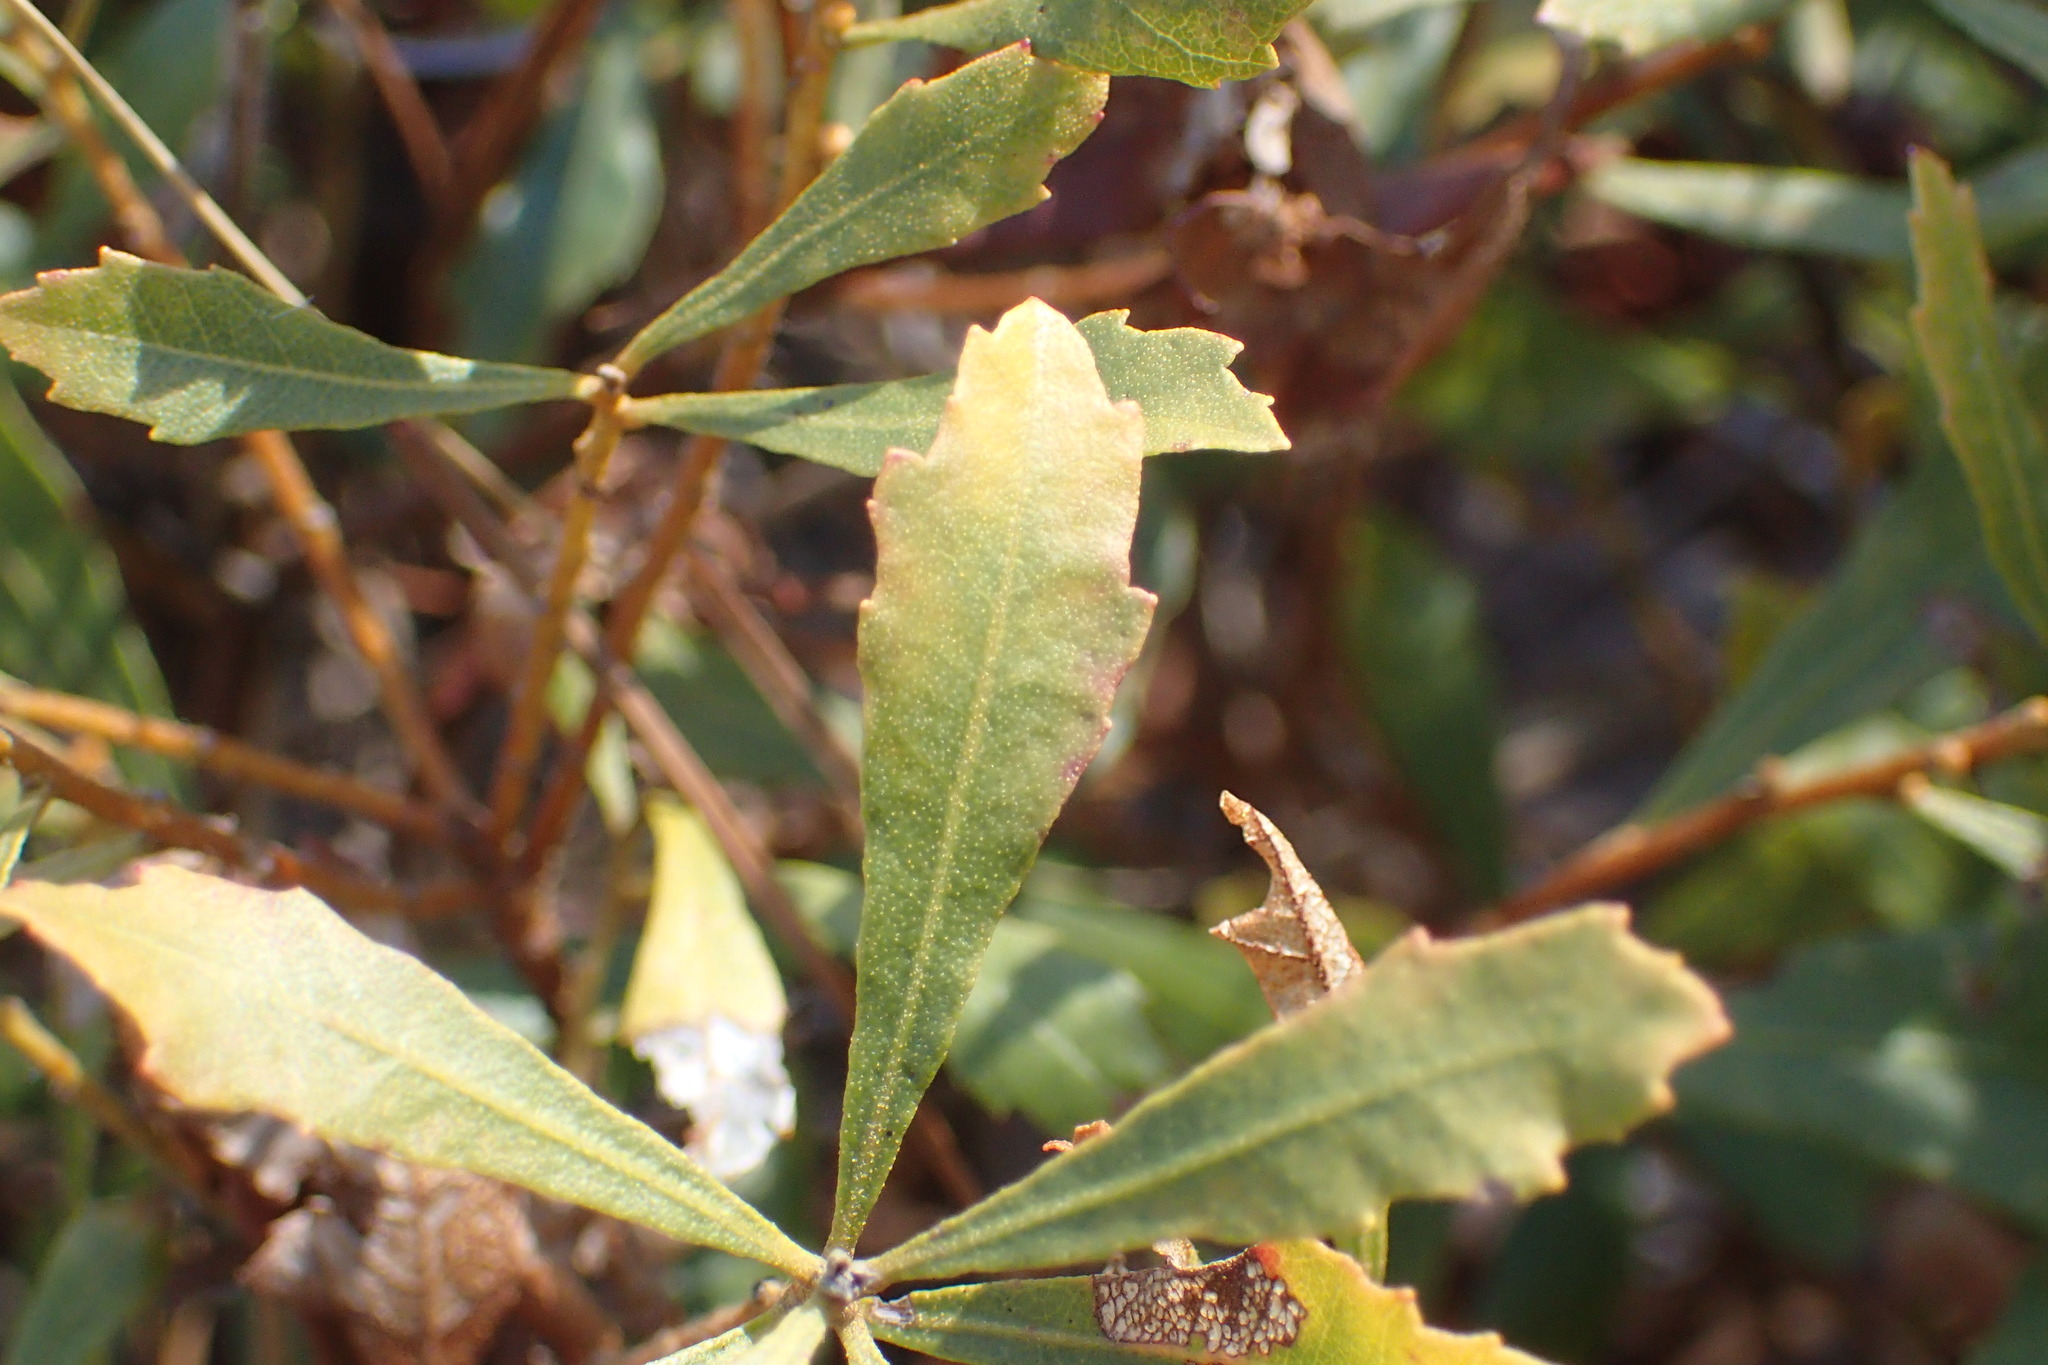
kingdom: Plantae
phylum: Tracheophyta
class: Magnoliopsida
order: Fagales
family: Myricaceae
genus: Morella
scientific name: Morella cerifera
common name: Wax myrtle
